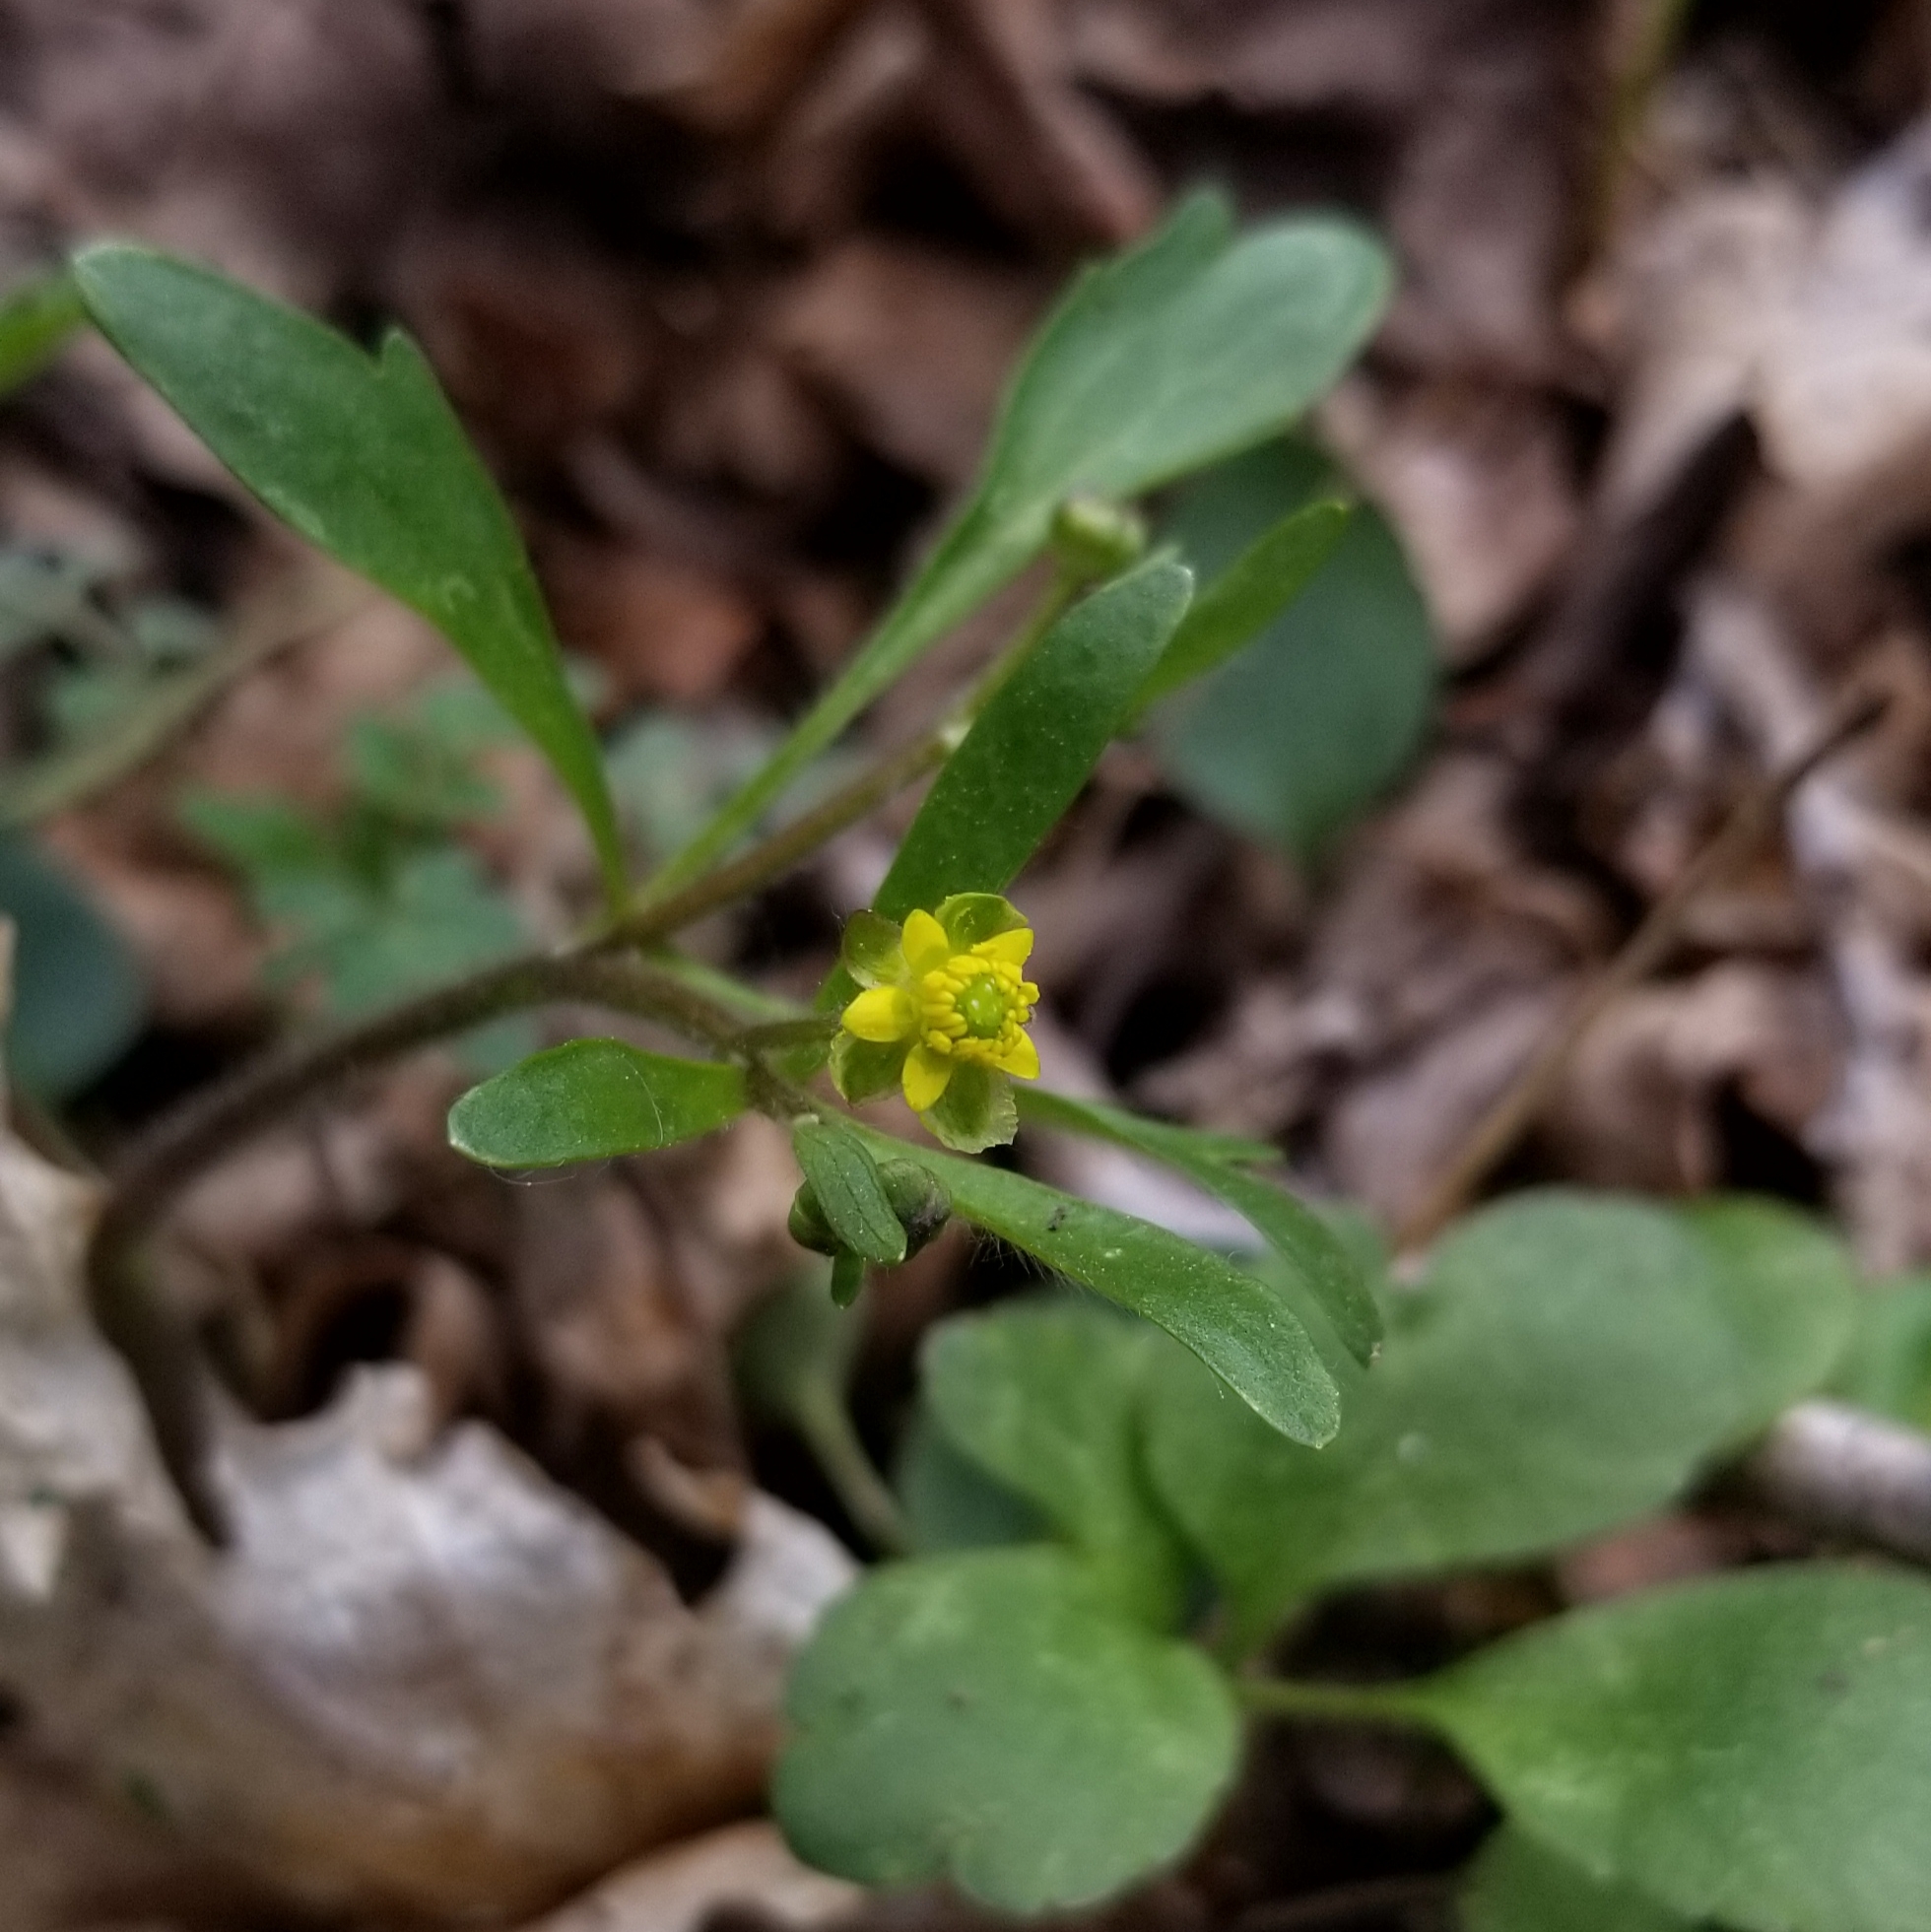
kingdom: Plantae
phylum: Tracheophyta
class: Magnoliopsida
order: Ranunculales
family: Ranunculaceae
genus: Ranunculus
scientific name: Ranunculus micranthus
